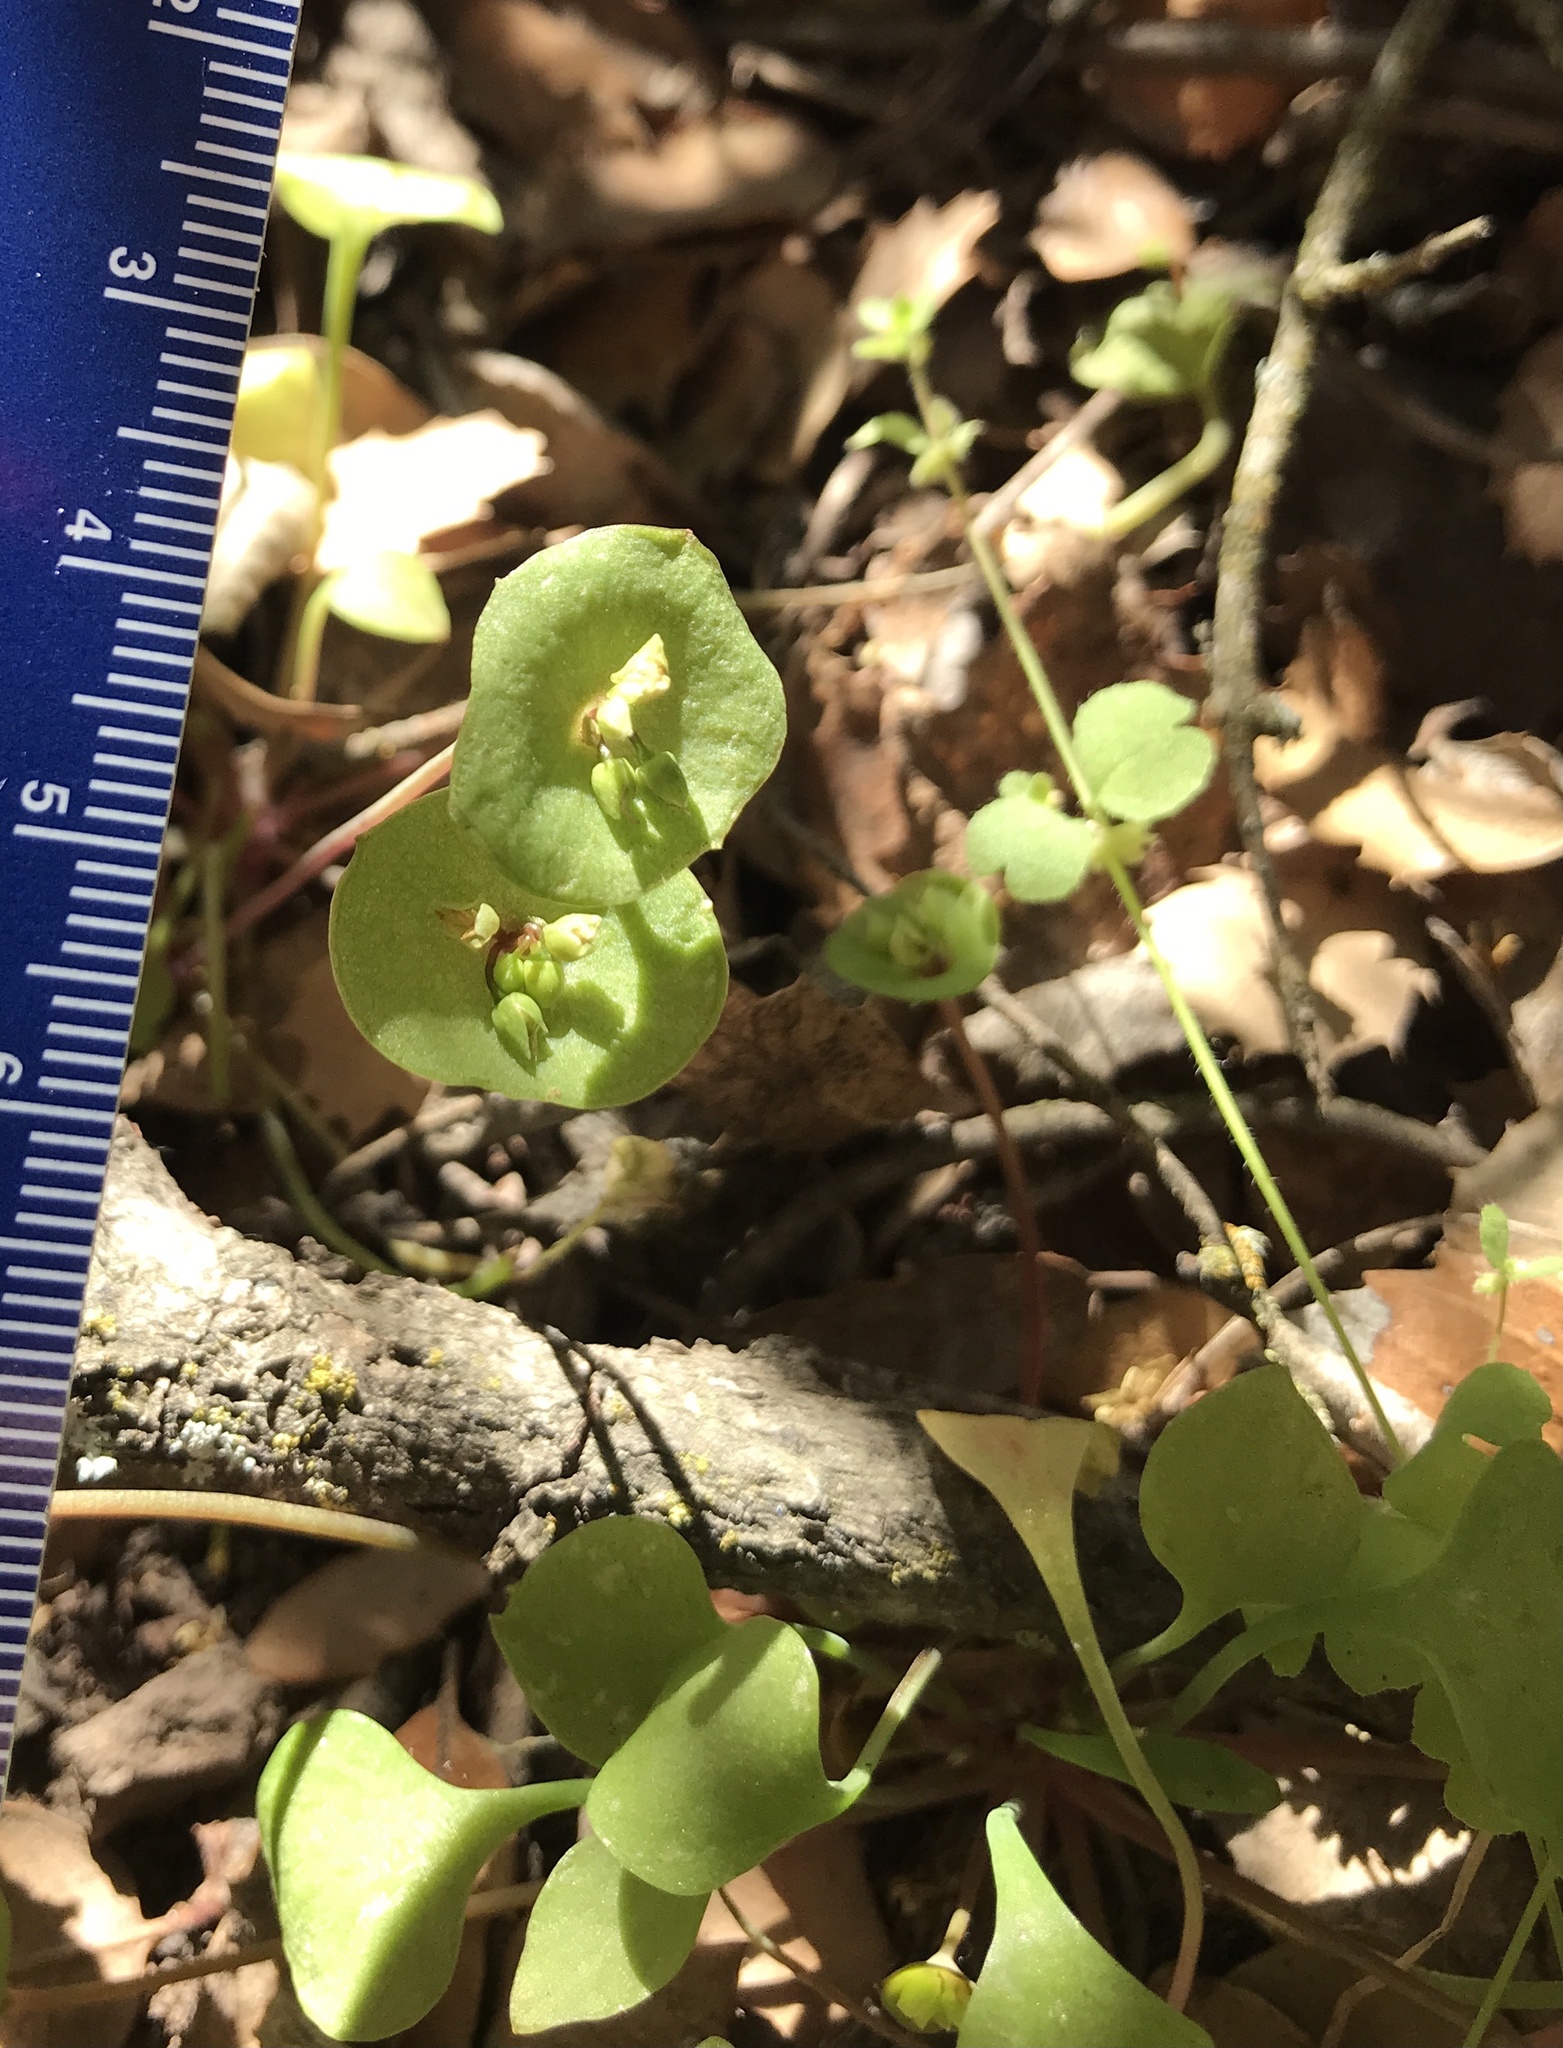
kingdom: Plantae
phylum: Tracheophyta
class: Magnoliopsida
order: Caryophyllales
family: Montiaceae
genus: Claytonia
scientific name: Claytonia perfoliata
